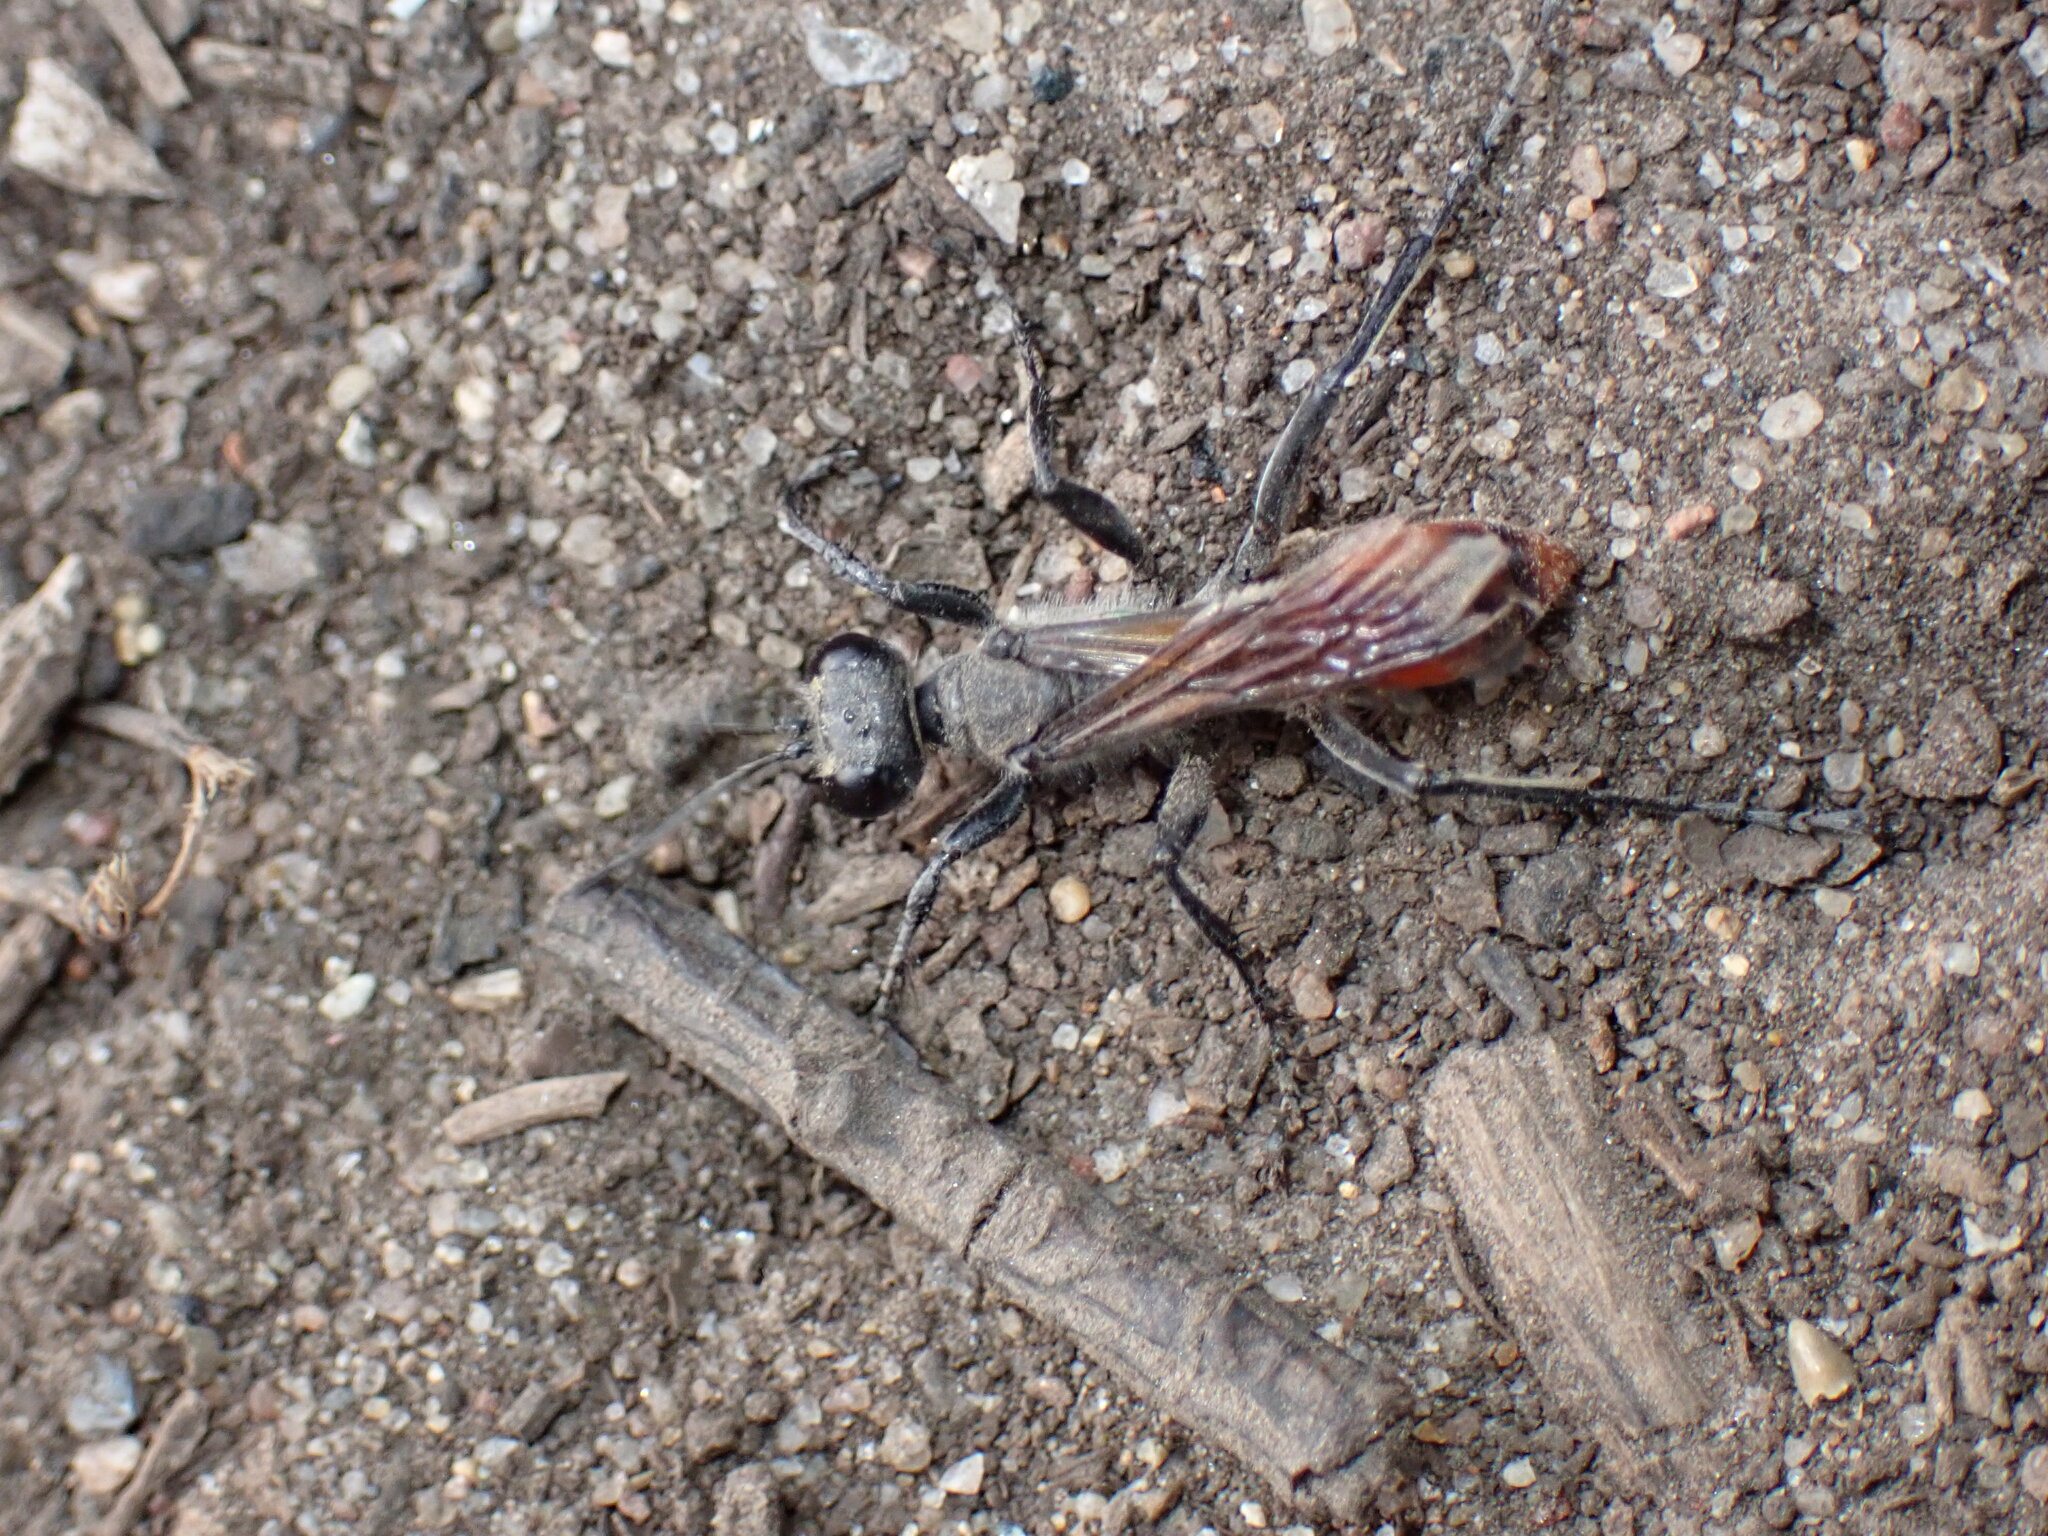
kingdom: Animalia
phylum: Arthropoda
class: Insecta
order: Hymenoptera
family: Sphecidae
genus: Prionyx
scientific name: Prionyx parkeri
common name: Parker's thread-waisted wasp
